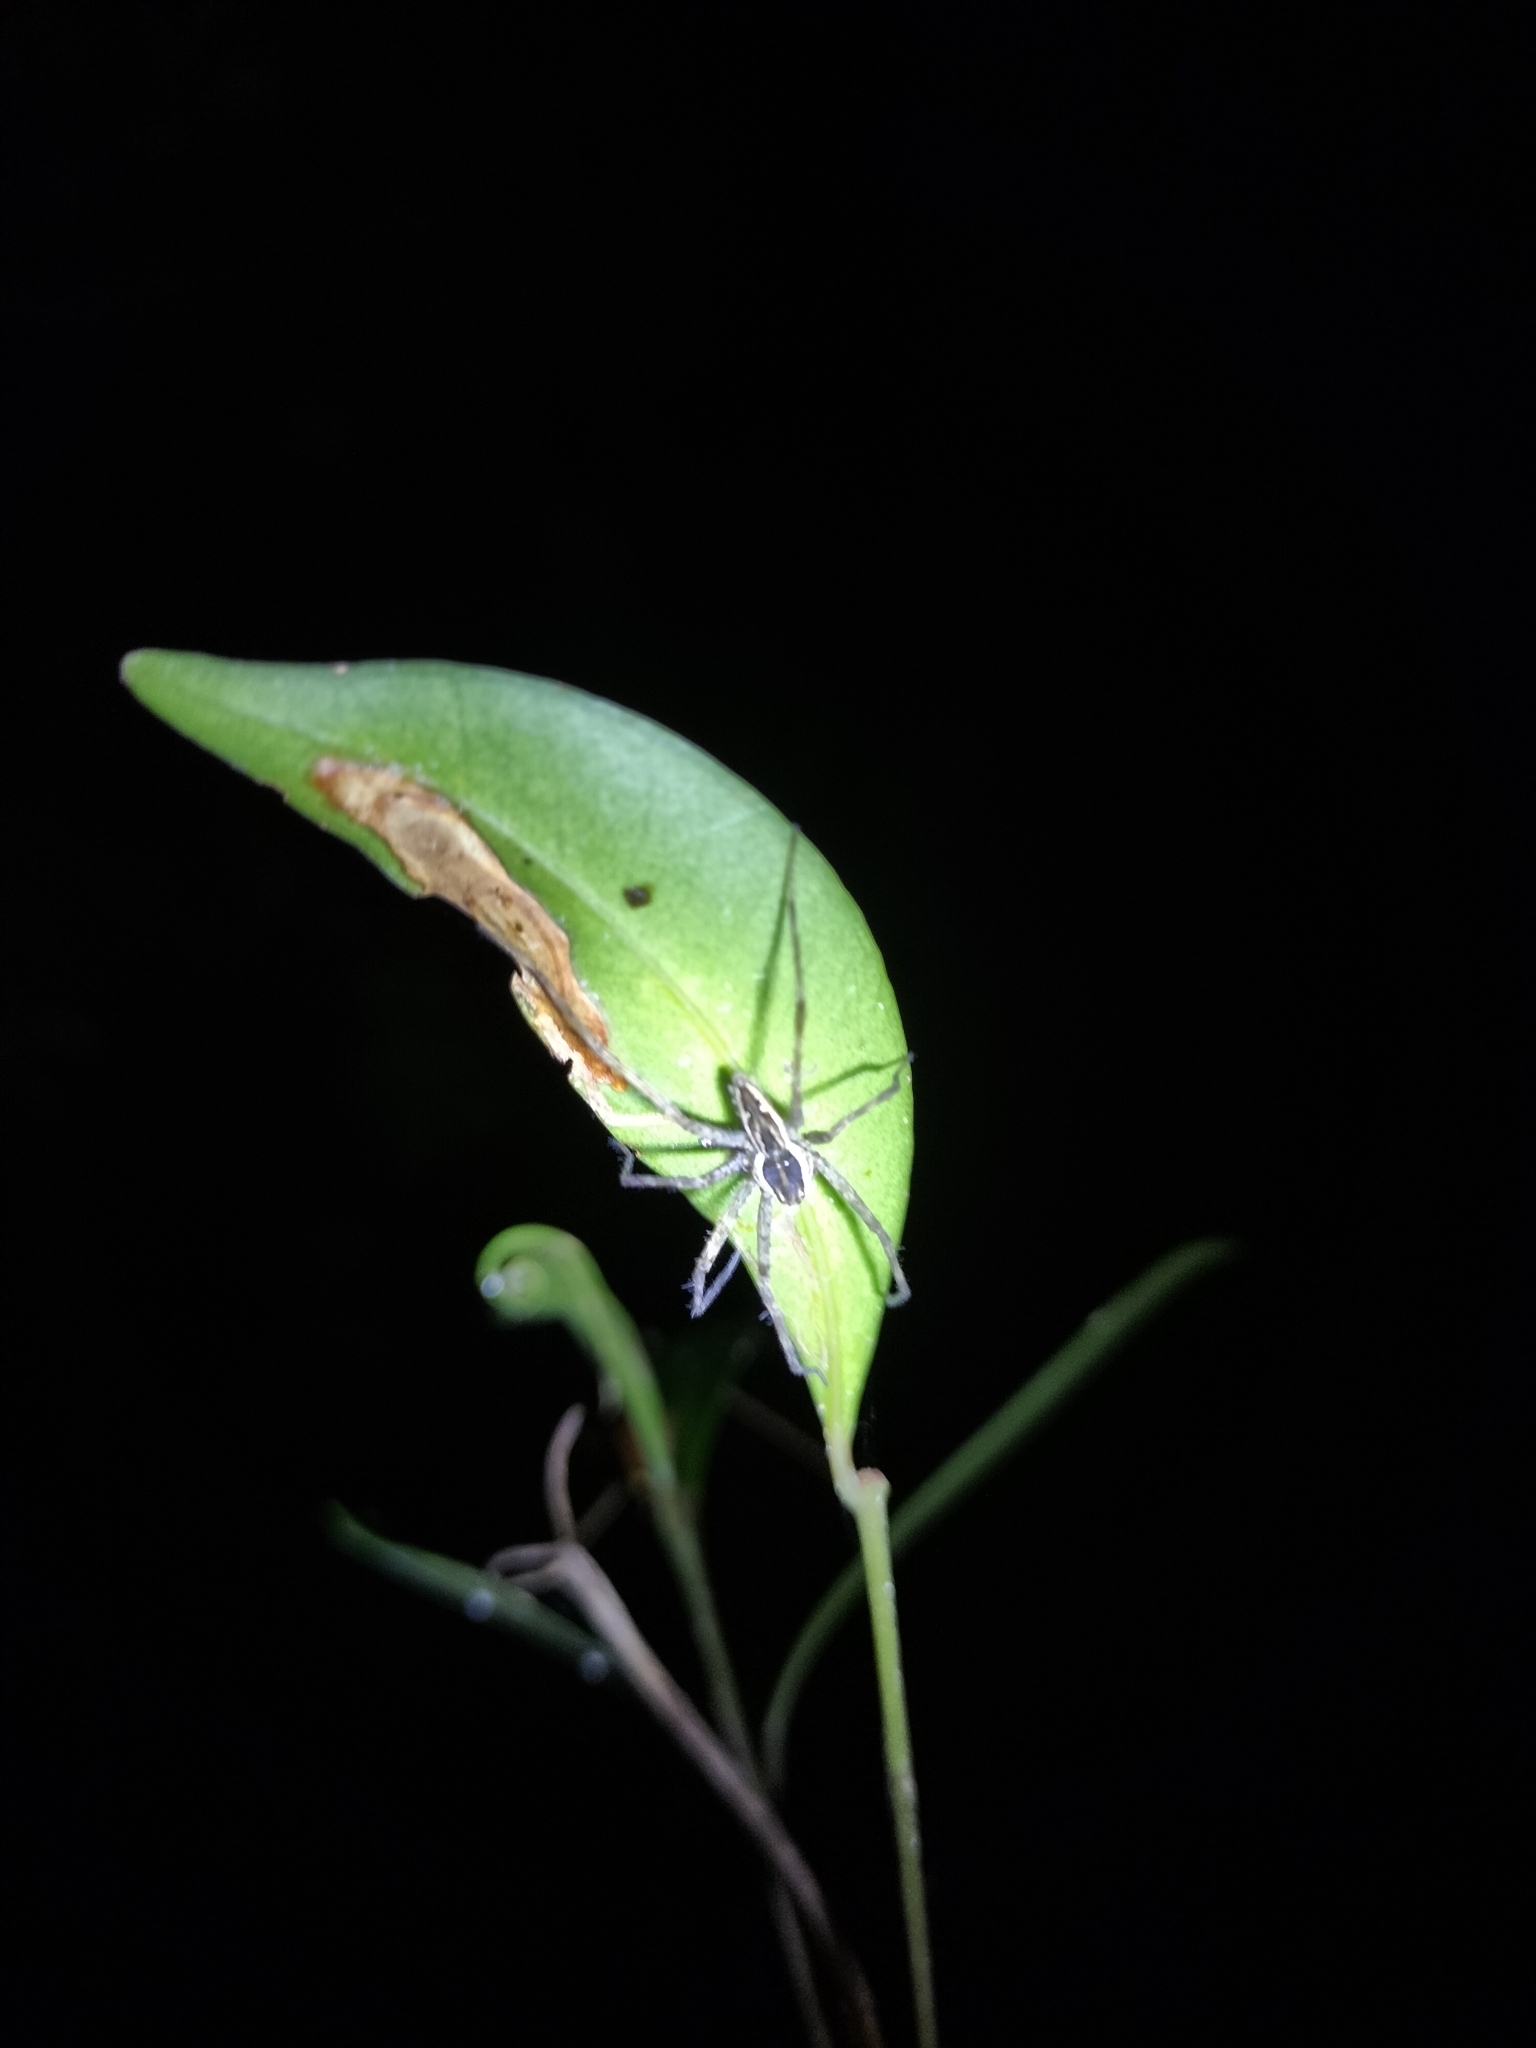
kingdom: Animalia
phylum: Arthropoda
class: Arachnida
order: Araneae
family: Pisauridae
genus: Megadolomedes
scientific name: Megadolomedes trux
